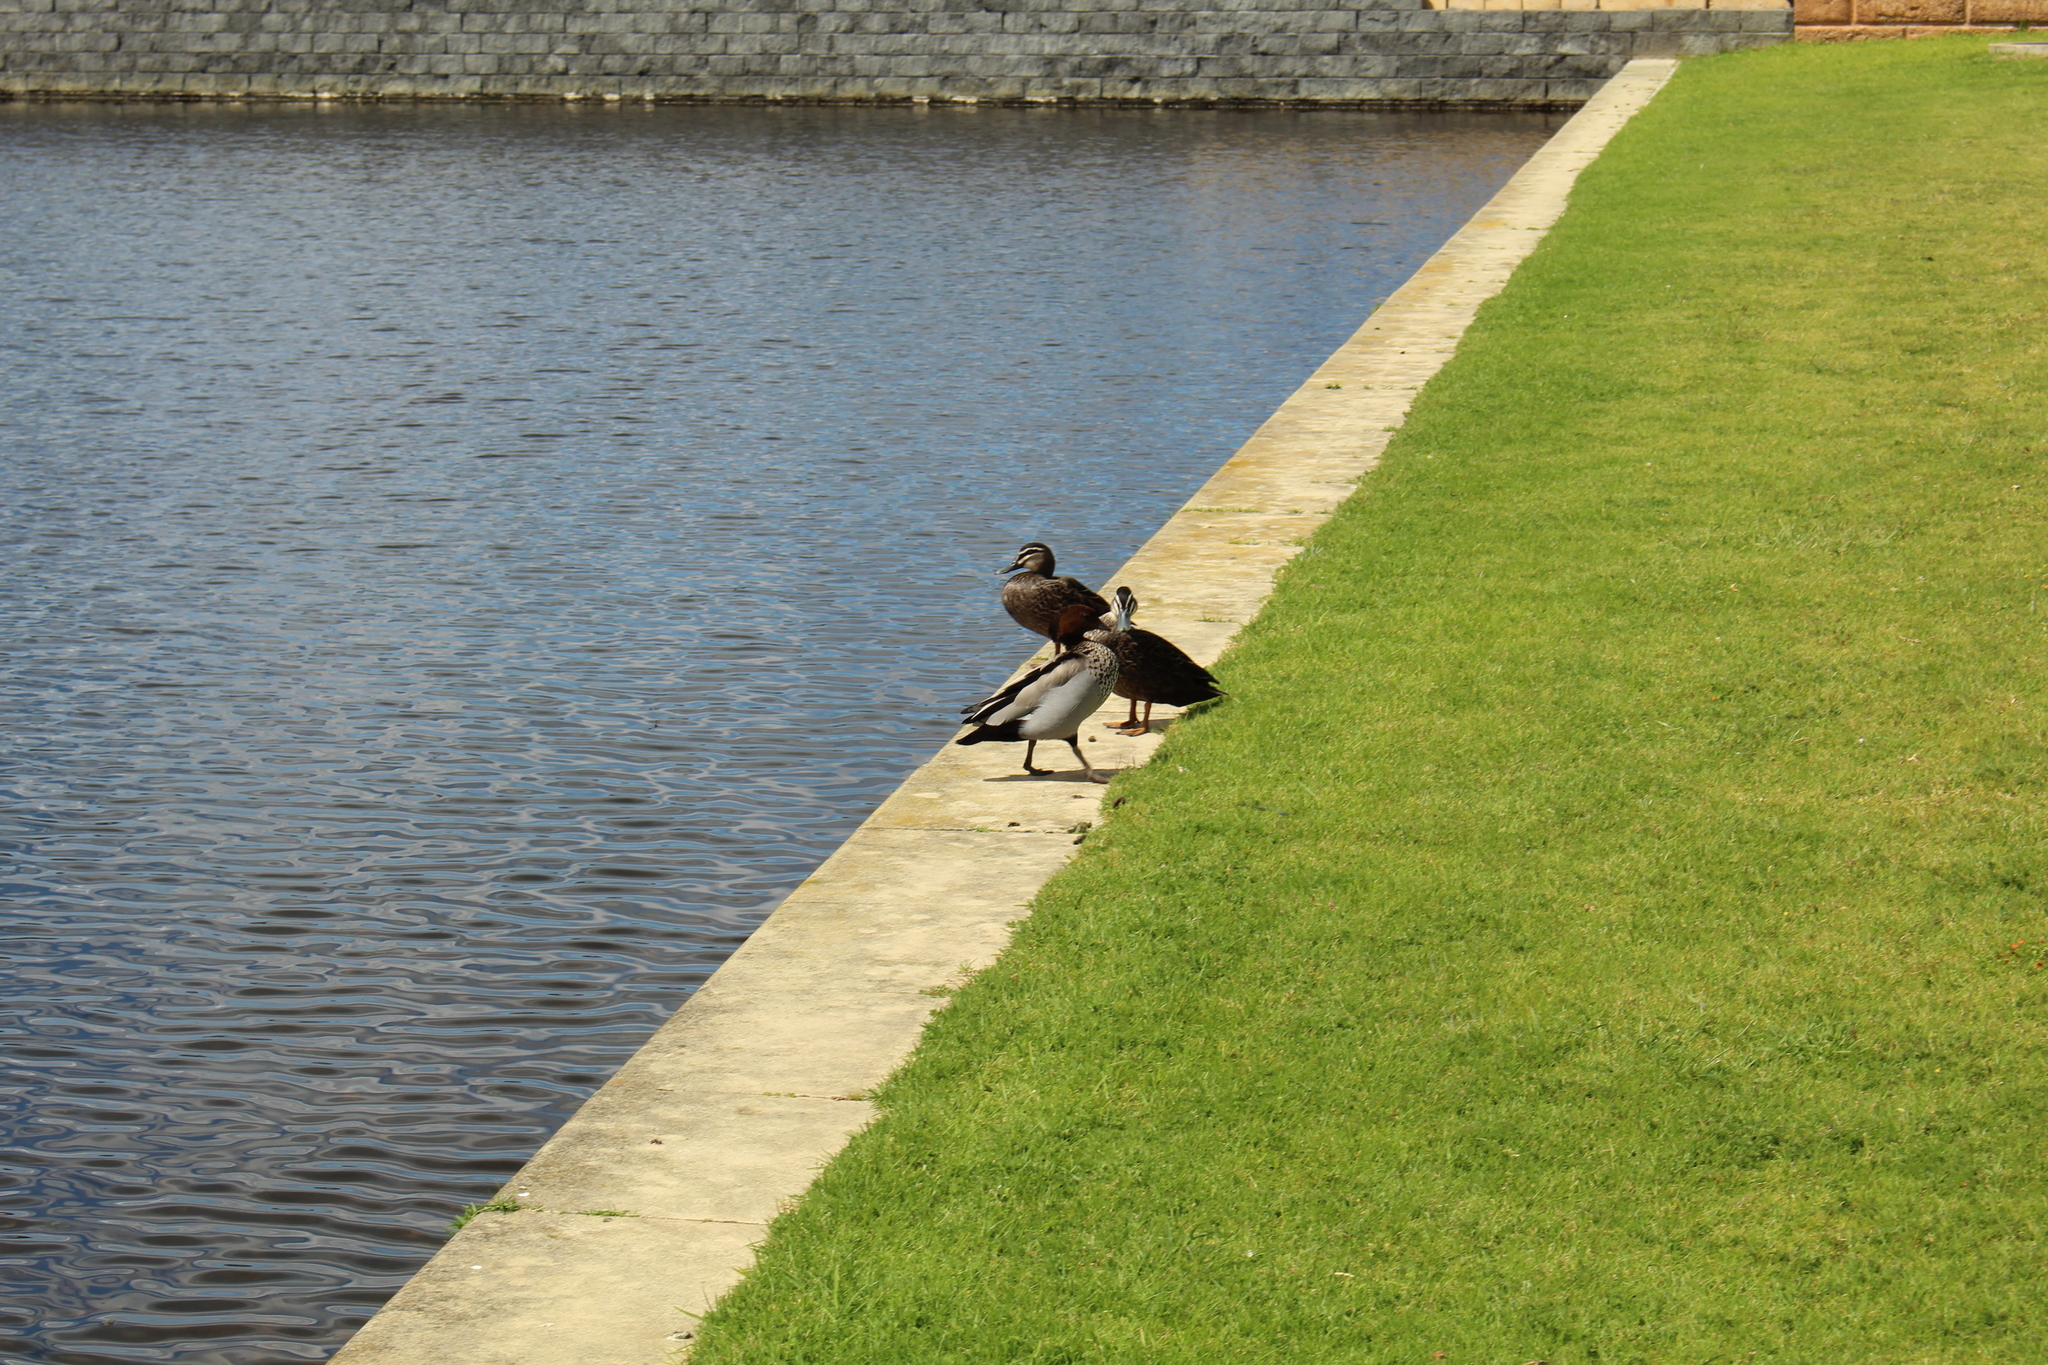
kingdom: Animalia
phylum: Chordata
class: Aves
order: Anseriformes
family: Anatidae
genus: Chenonetta
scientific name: Chenonetta jubata
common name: Maned duck
